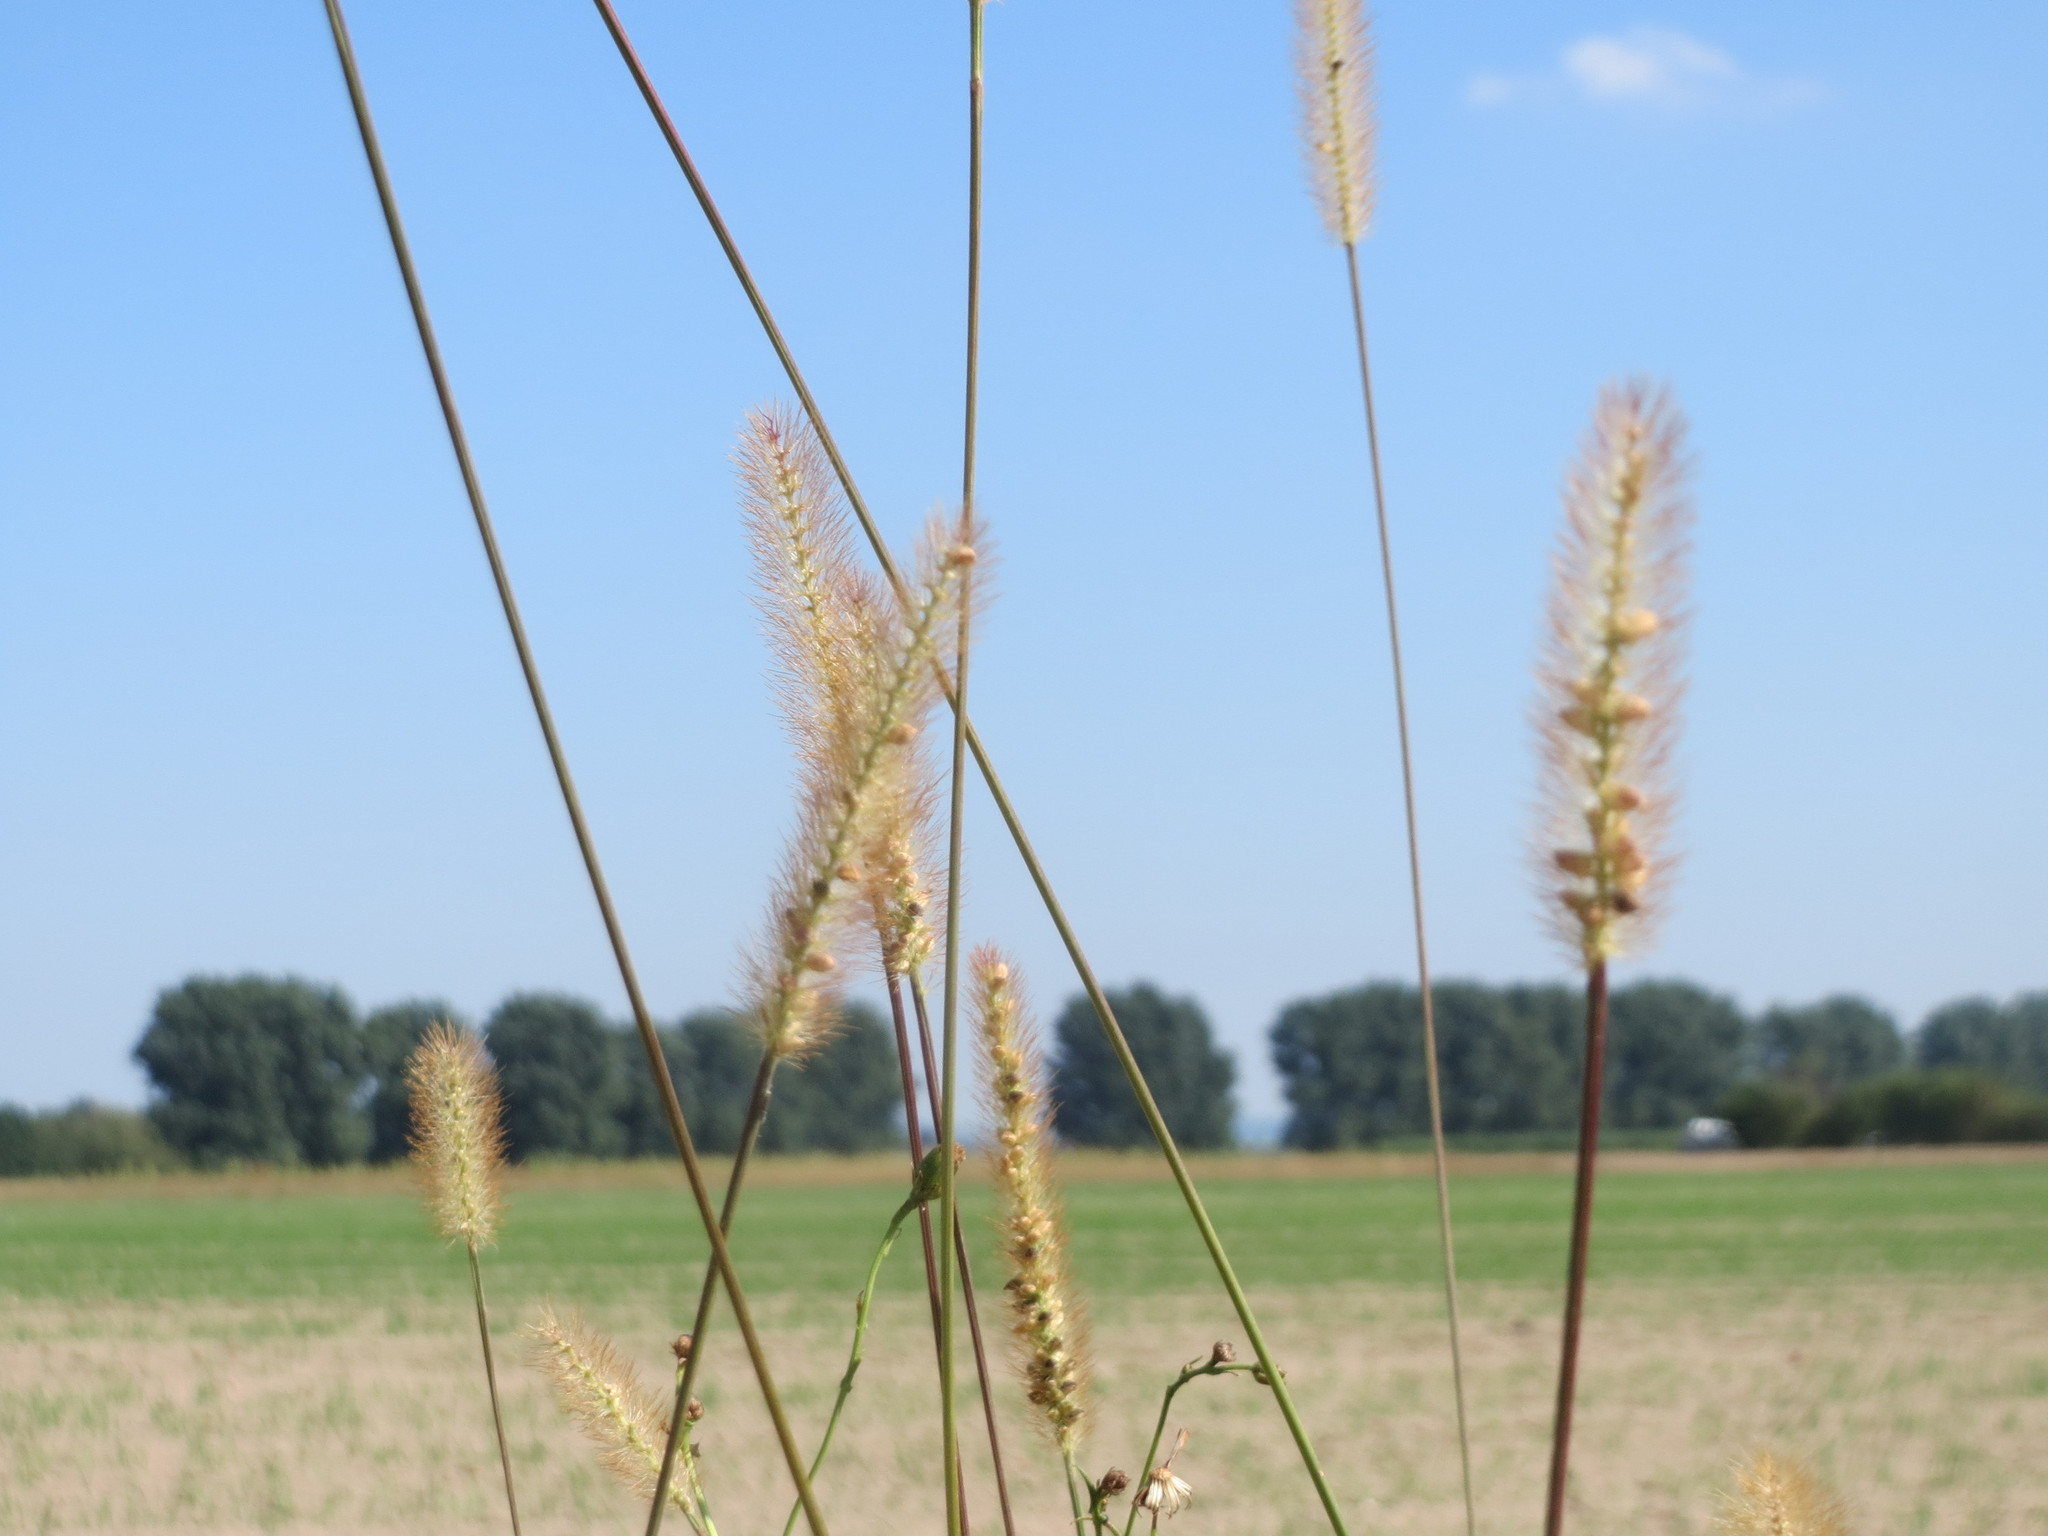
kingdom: Plantae
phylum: Tracheophyta
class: Liliopsida
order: Poales
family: Poaceae
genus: Setaria
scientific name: Setaria pumila
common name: Yellow bristle-grass
